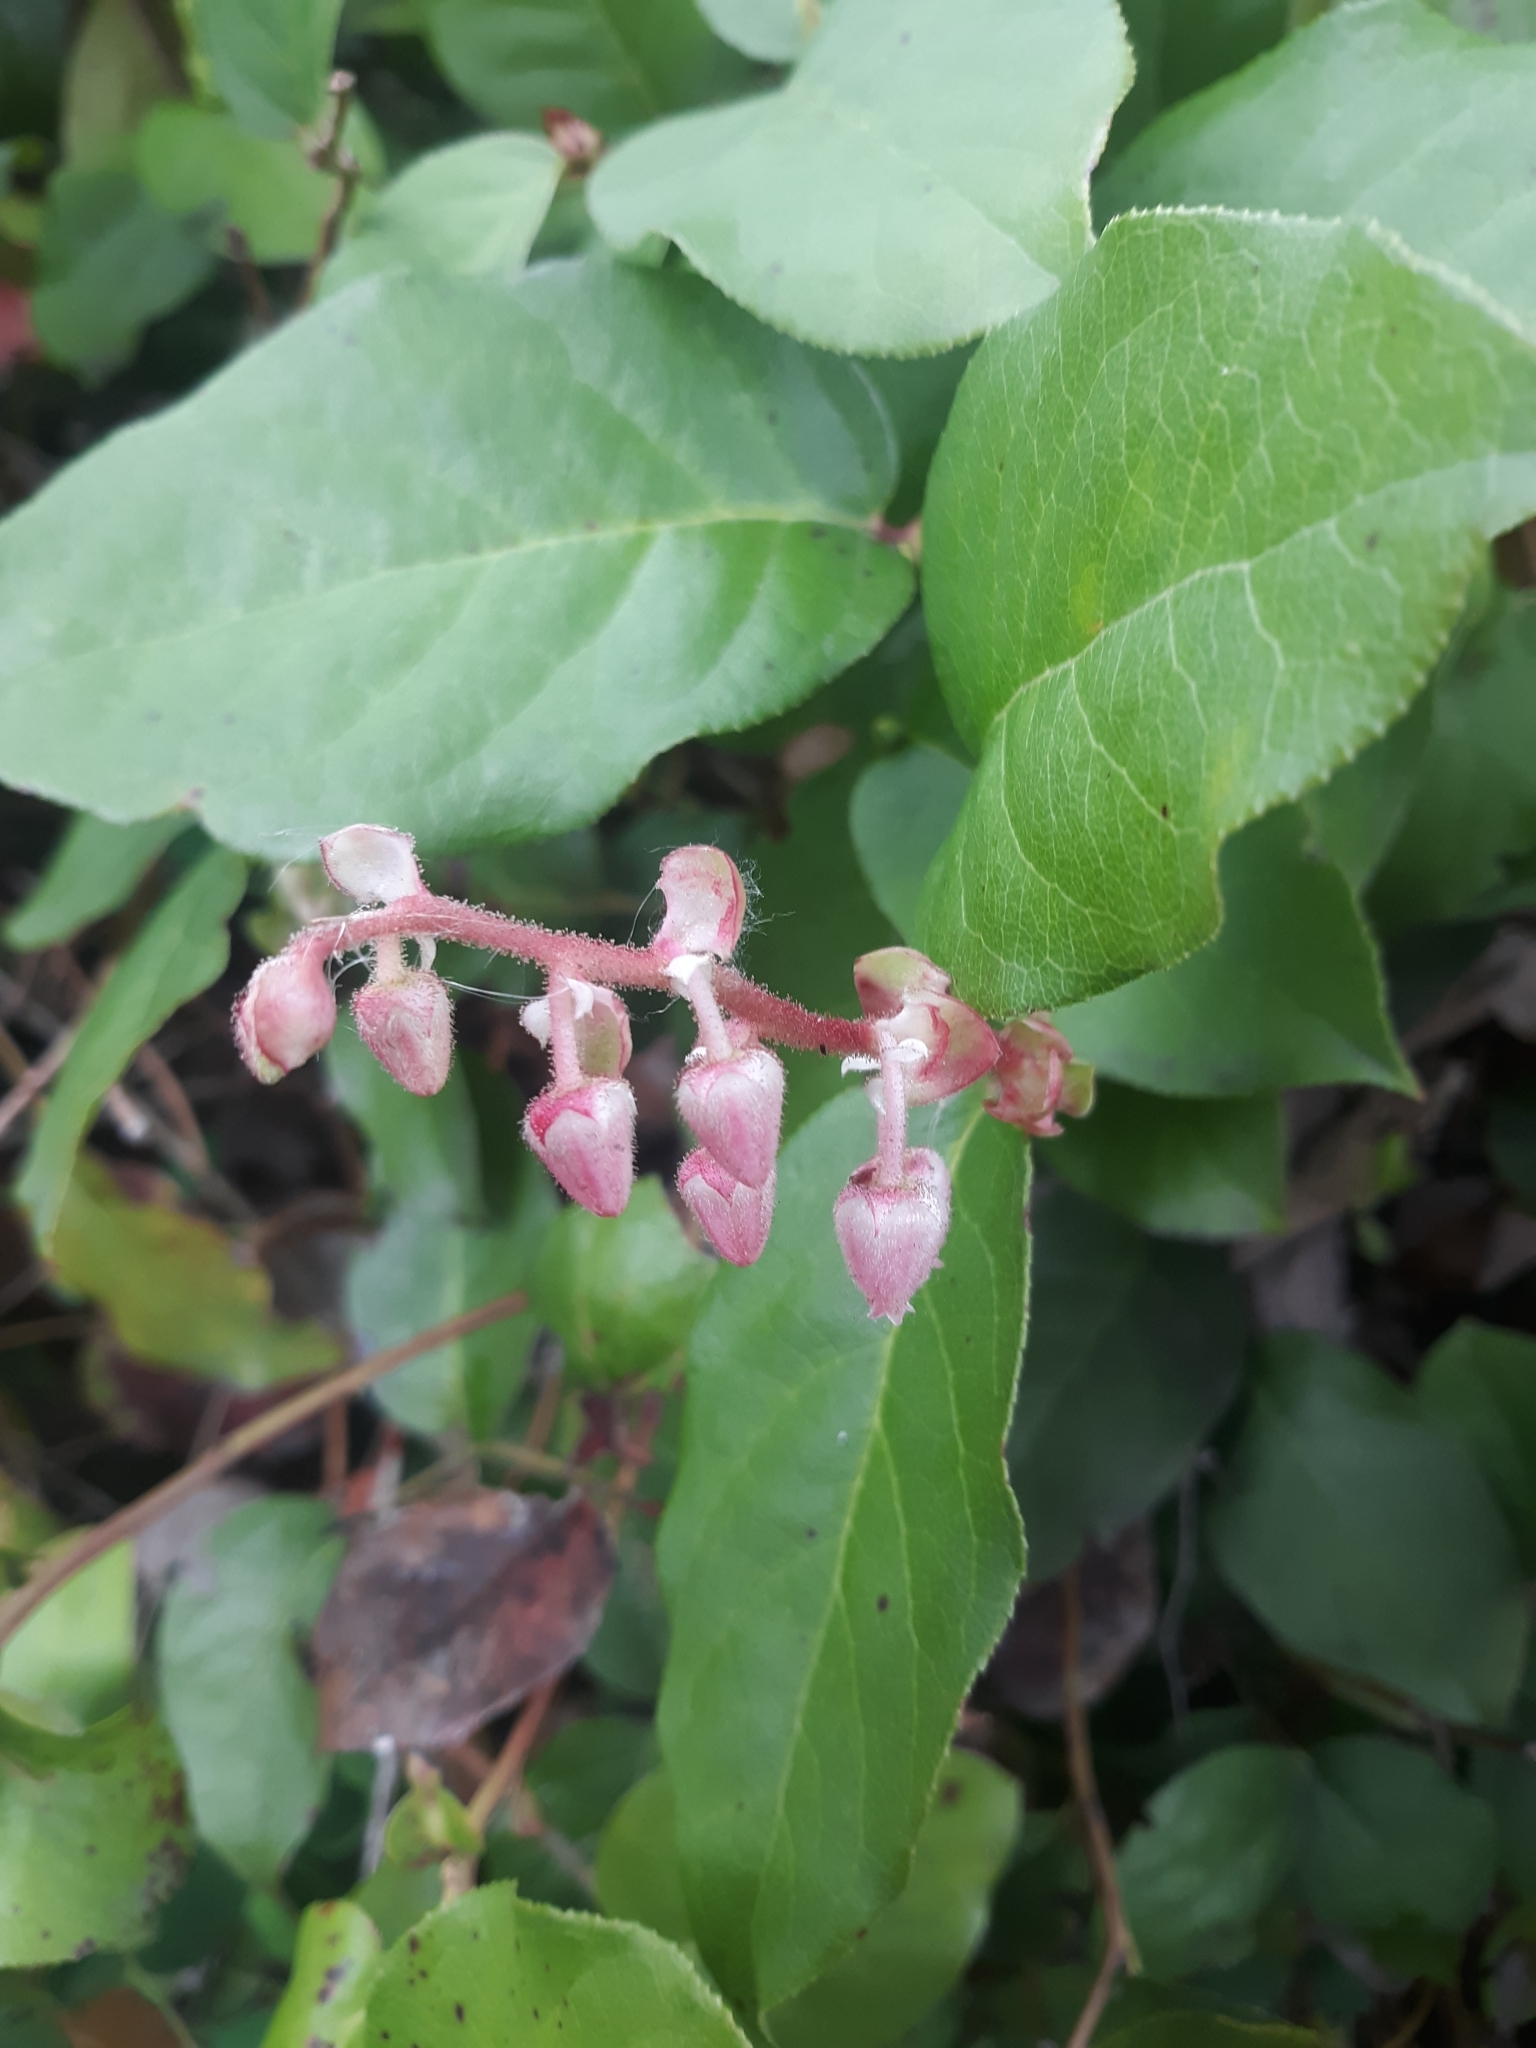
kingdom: Plantae
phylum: Tracheophyta
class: Magnoliopsida
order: Ericales
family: Ericaceae
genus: Gaultheria
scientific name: Gaultheria shallon
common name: Shallon
